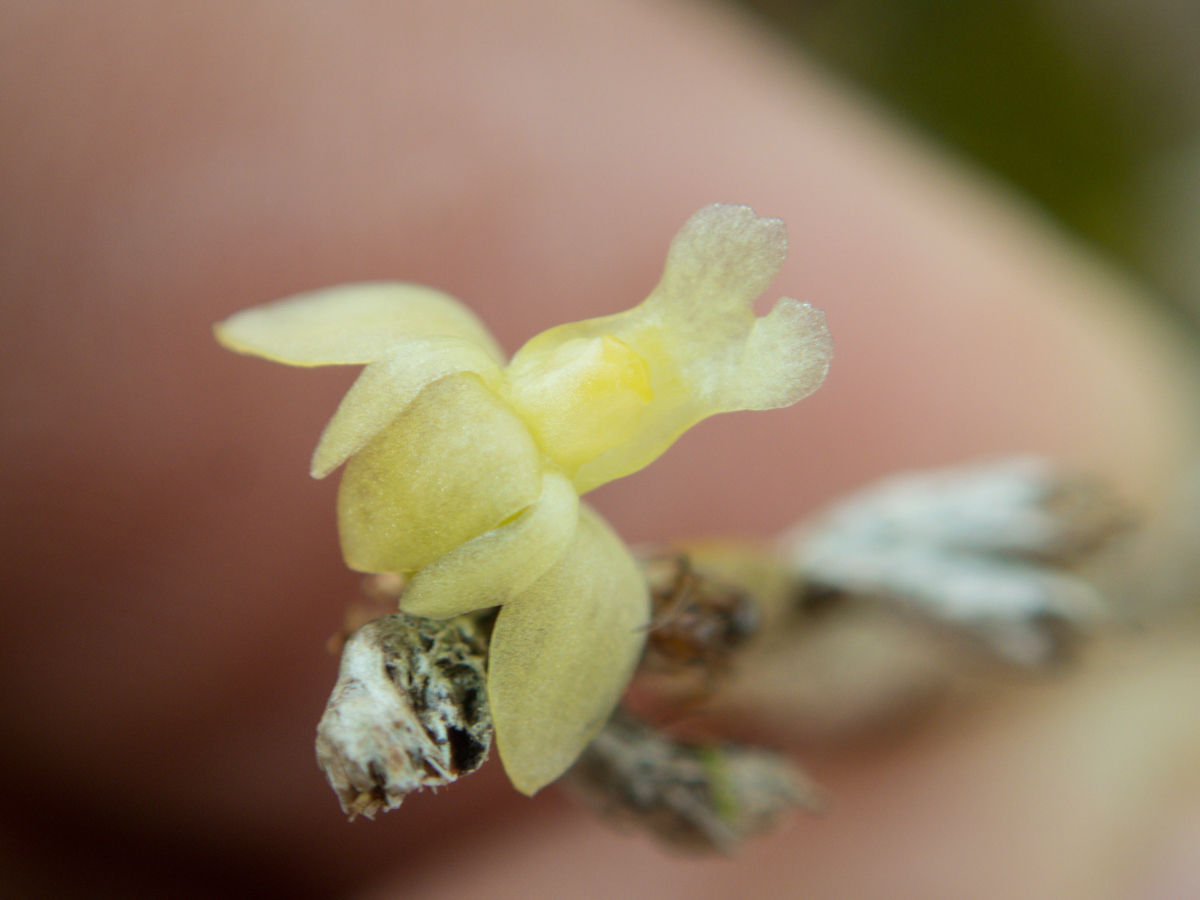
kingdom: Plantae
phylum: Tracheophyta
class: Liliopsida
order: Asparagales
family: Orchidaceae
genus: Dendrobium
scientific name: Dendrobium aloifolium
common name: Aloe-like dendrobium
